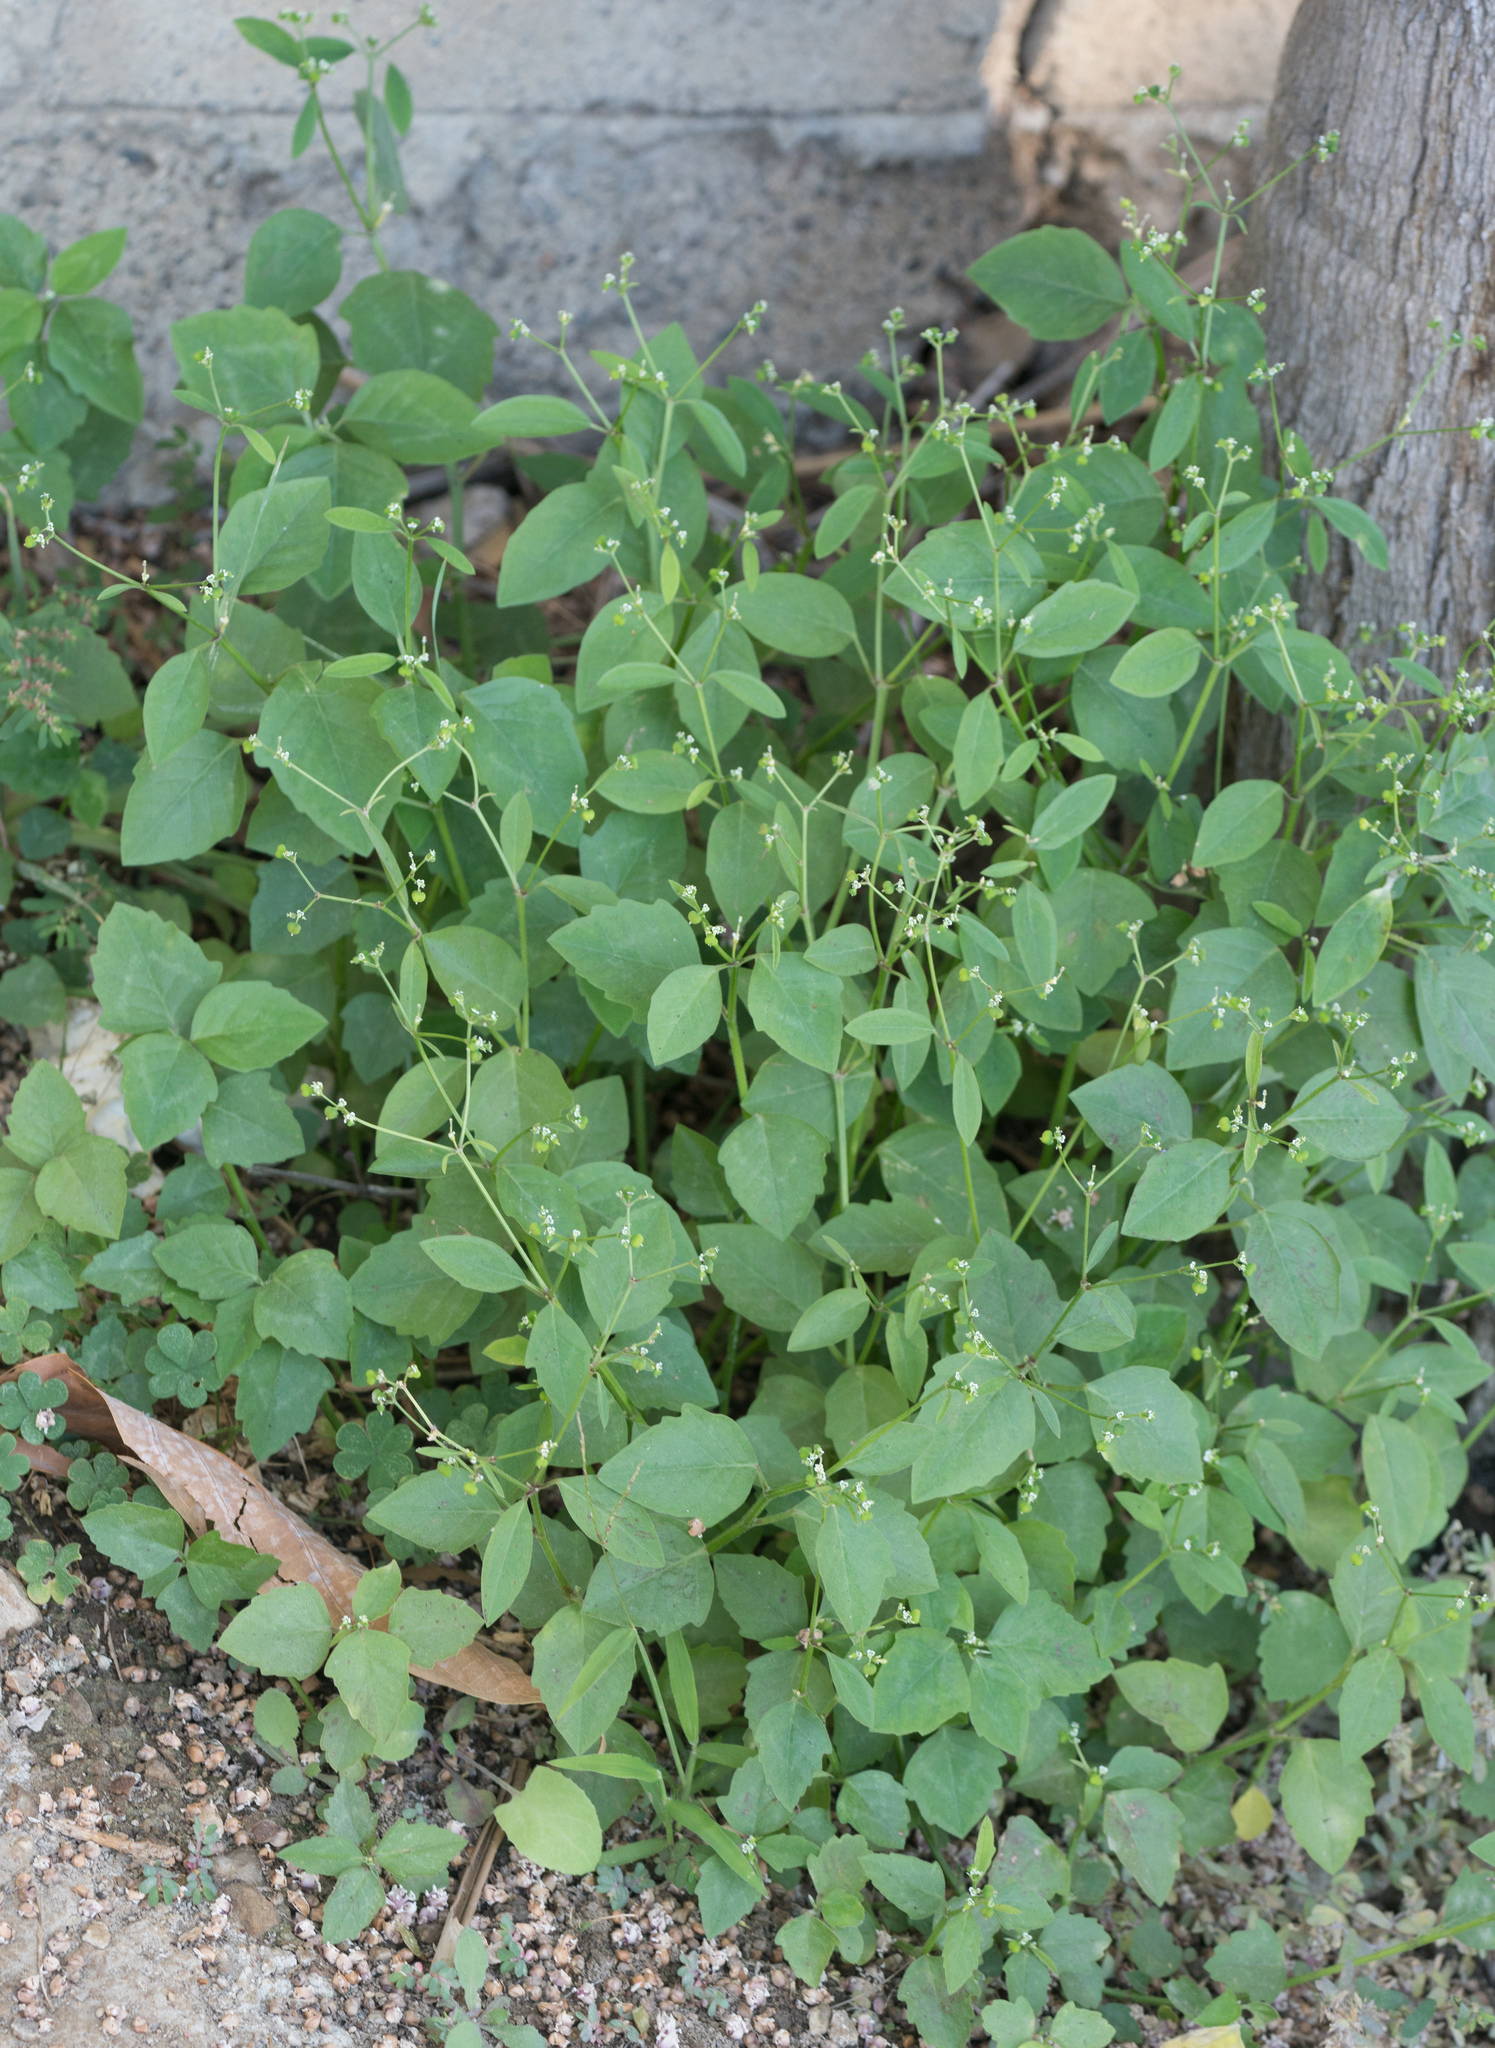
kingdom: Plantae
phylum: Tracheophyta
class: Magnoliopsida
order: Malpighiales
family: Euphorbiaceae
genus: Euphorbia
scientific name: Euphorbia graminea
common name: Grassleaf spurge
